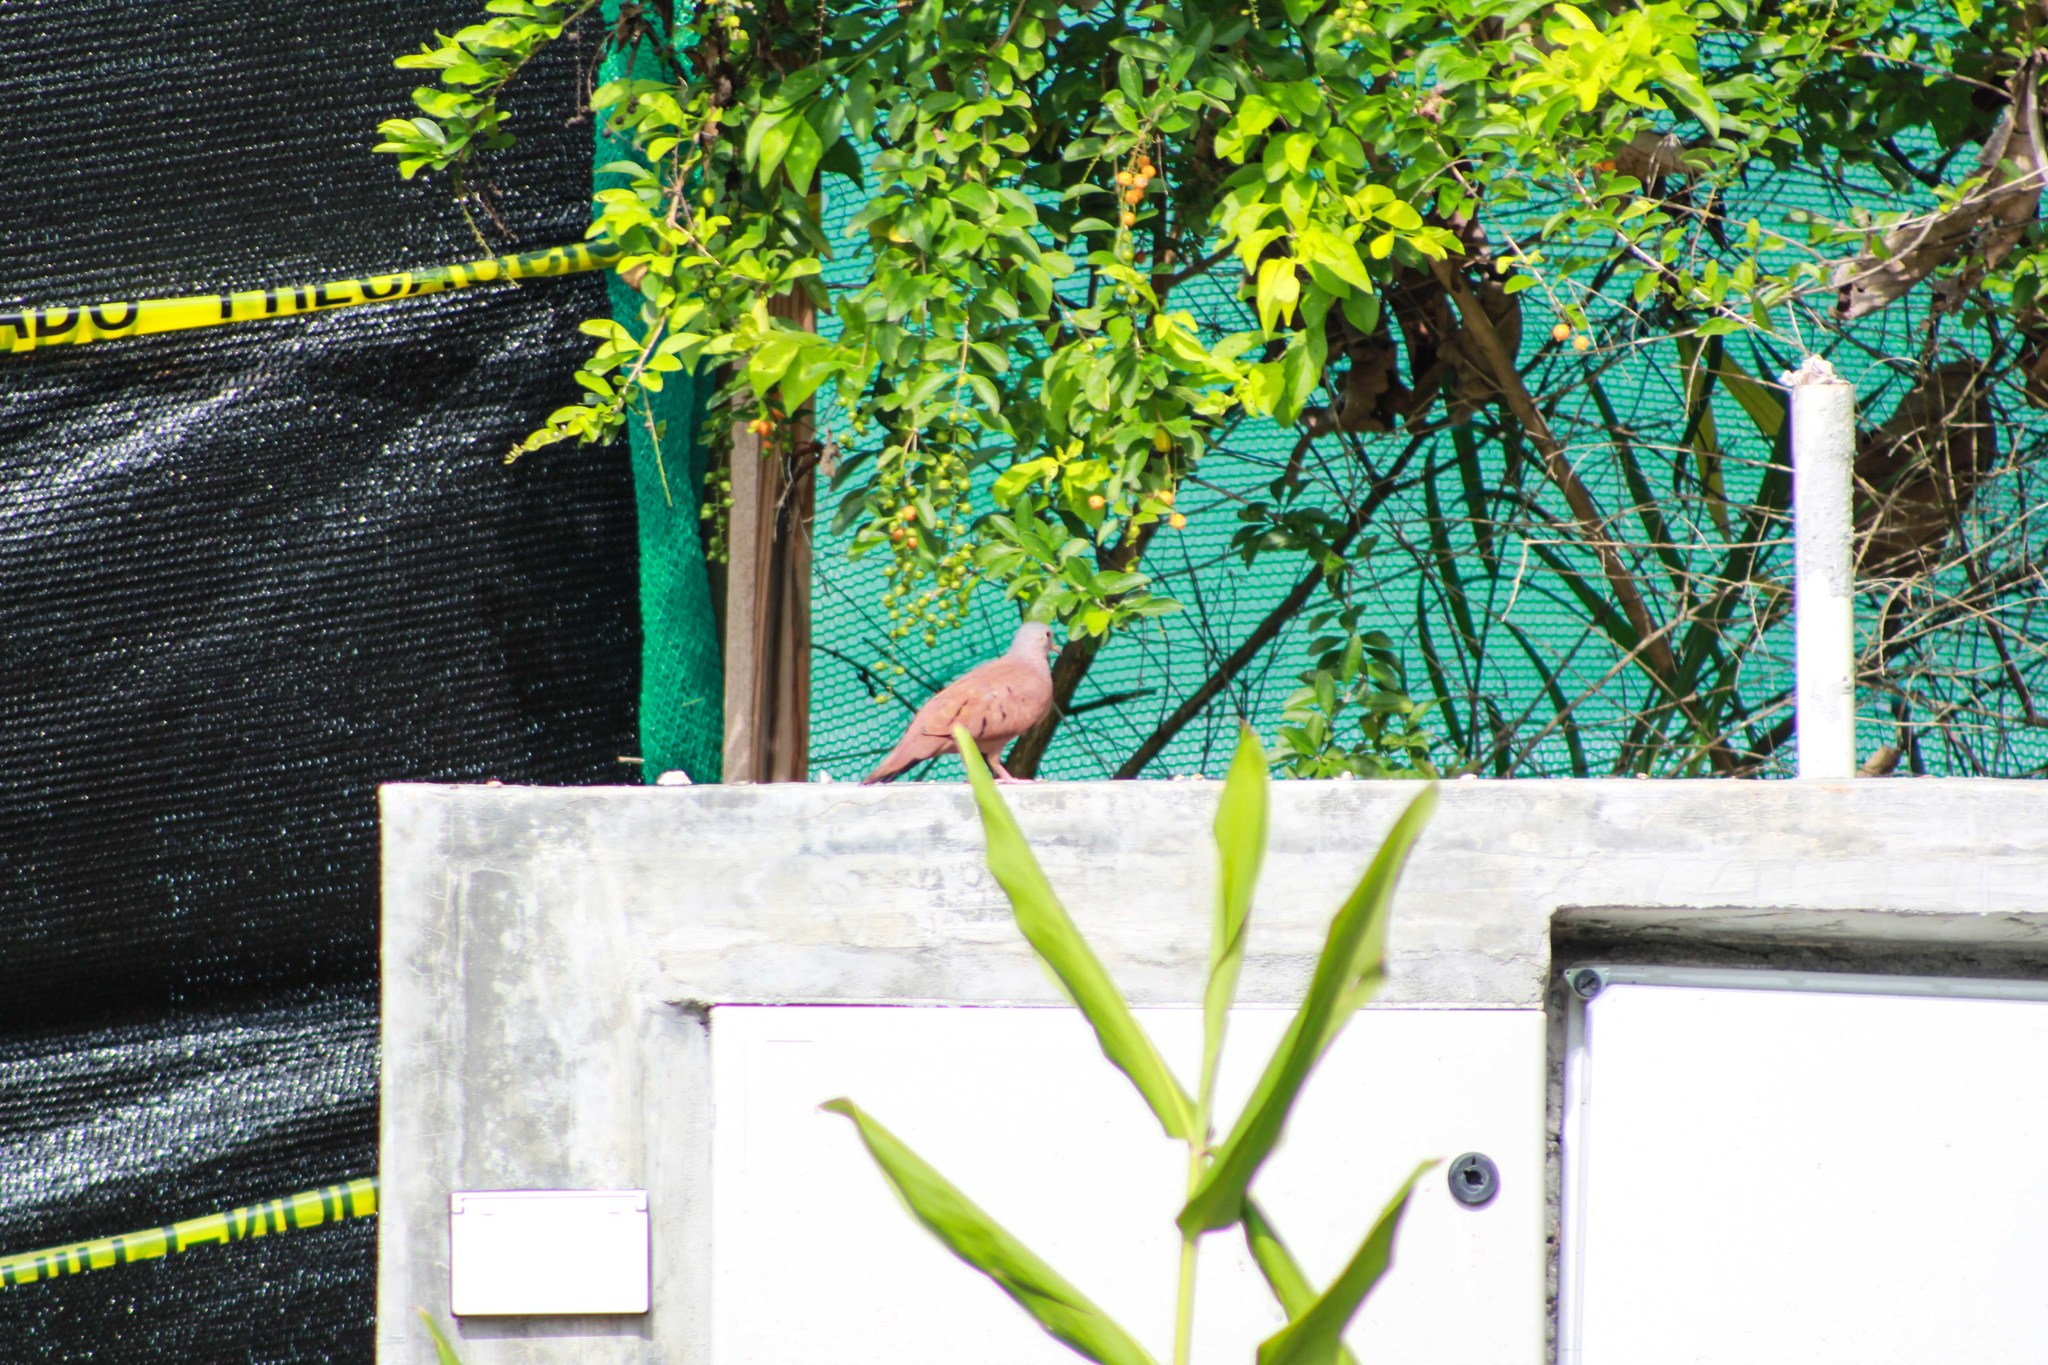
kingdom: Animalia
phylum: Chordata
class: Aves
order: Columbiformes
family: Columbidae
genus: Columbina
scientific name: Columbina talpacoti
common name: Ruddy ground dove
